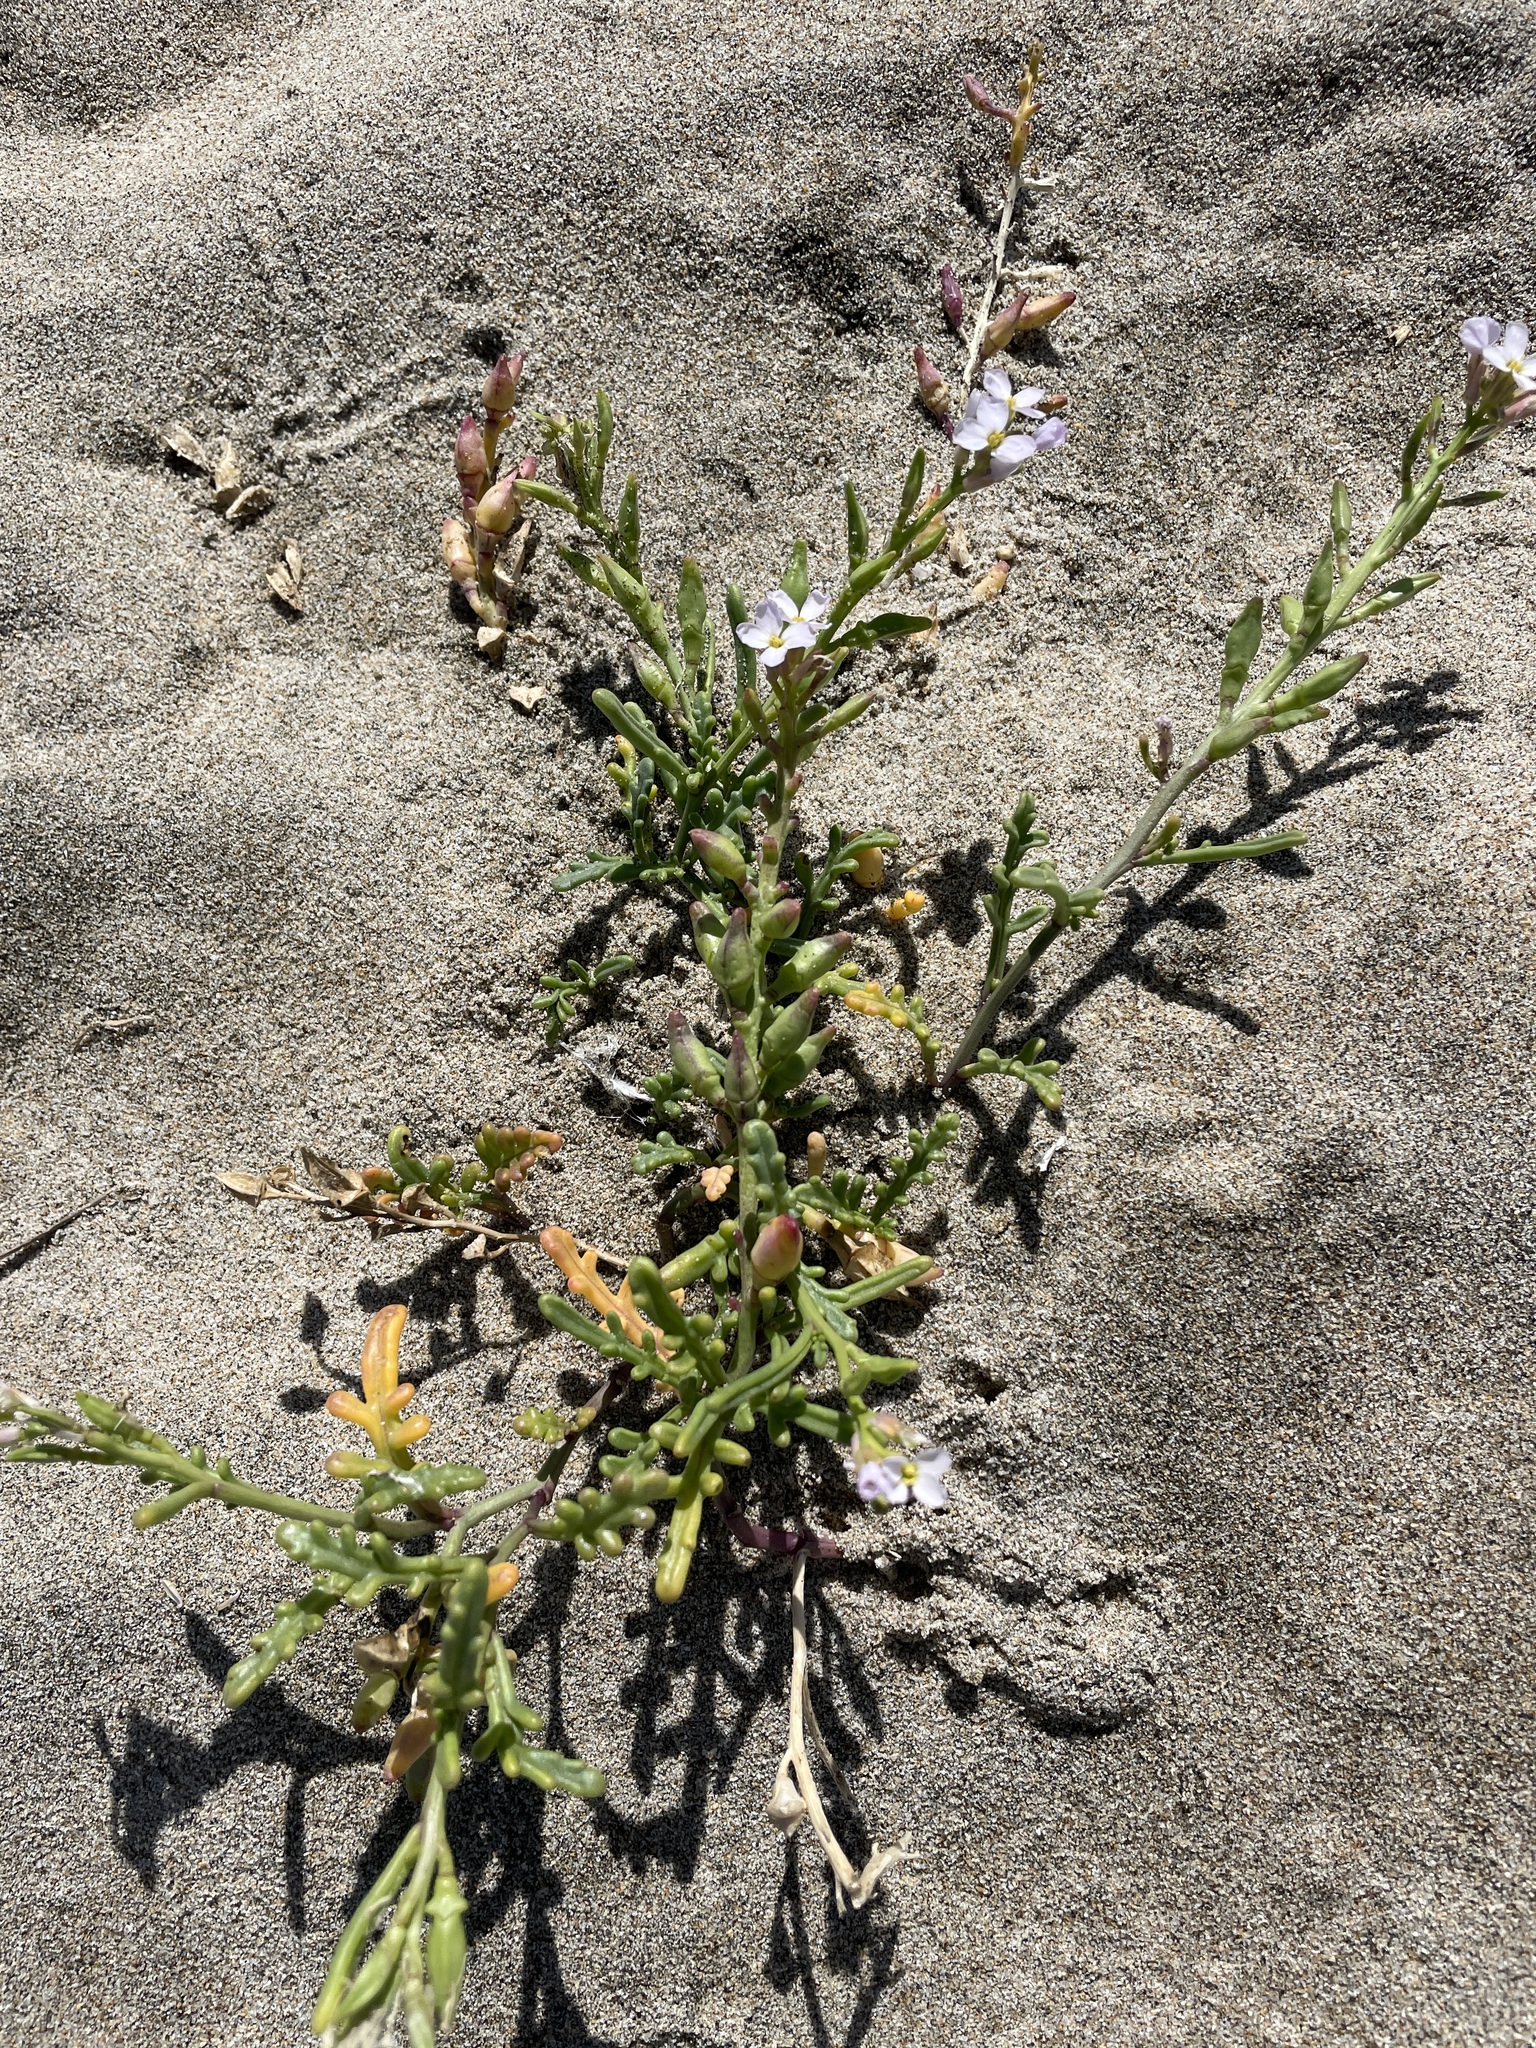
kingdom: Plantae
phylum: Tracheophyta
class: Magnoliopsida
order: Brassicales
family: Brassicaceae
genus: Cakile
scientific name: Cakile maritima
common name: Sea rocket
